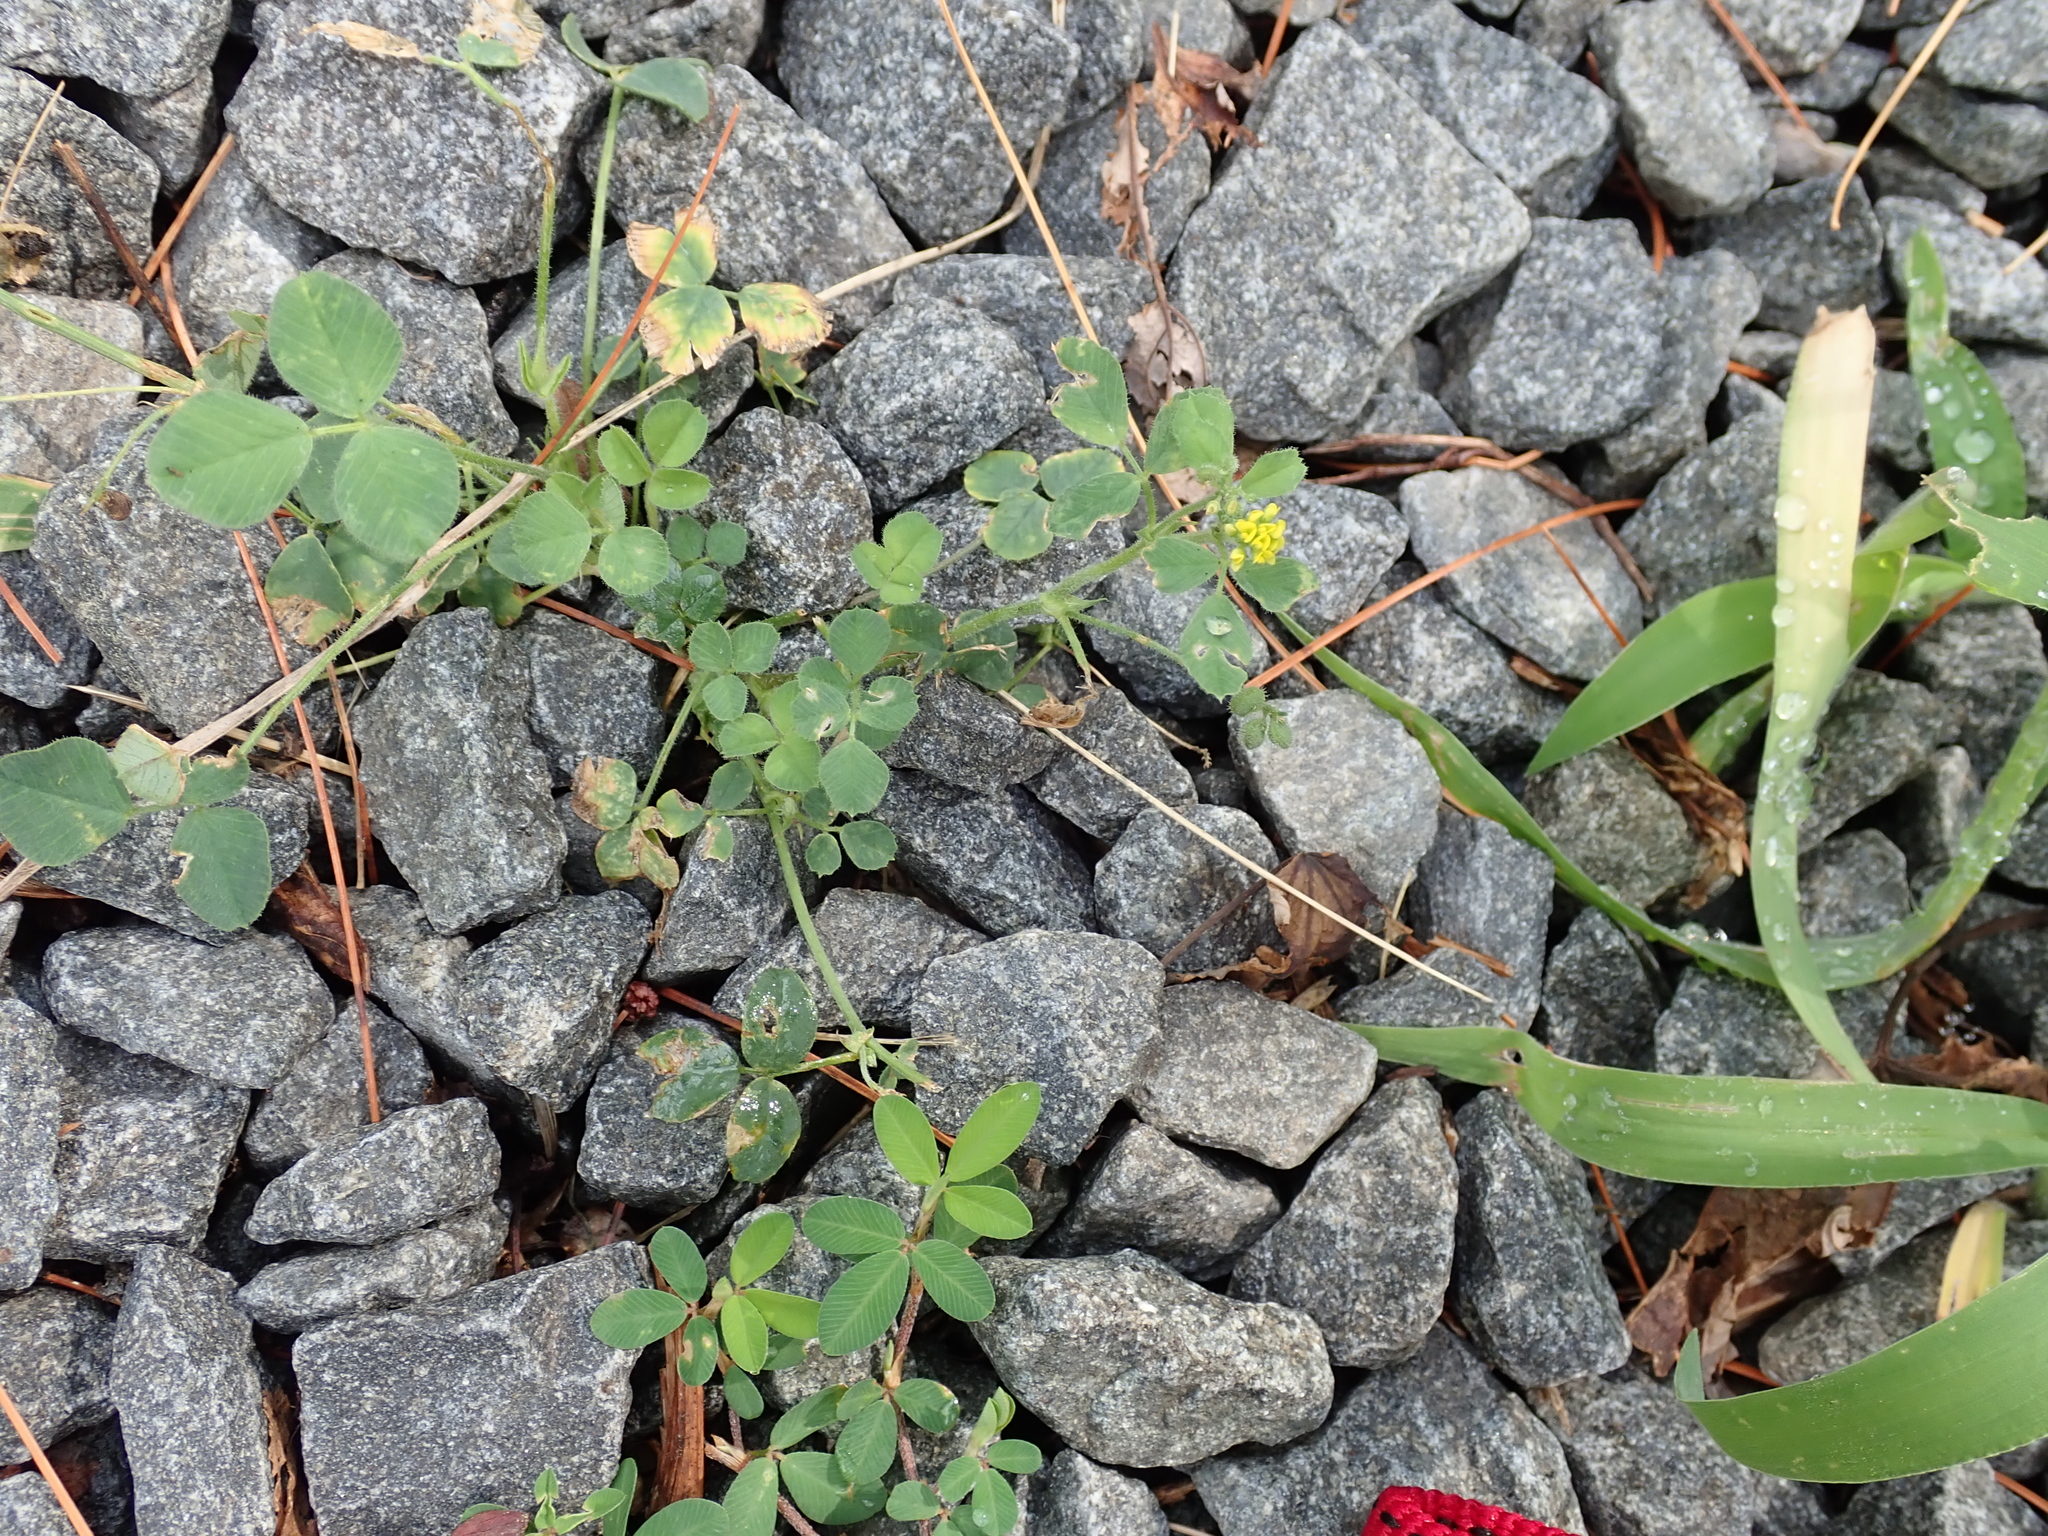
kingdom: Plantae
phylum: Tracheophyta
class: Magnoliopsida
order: Fabales
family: Fabaceae
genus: Medicago
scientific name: Medicago lupulina
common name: Black medick
